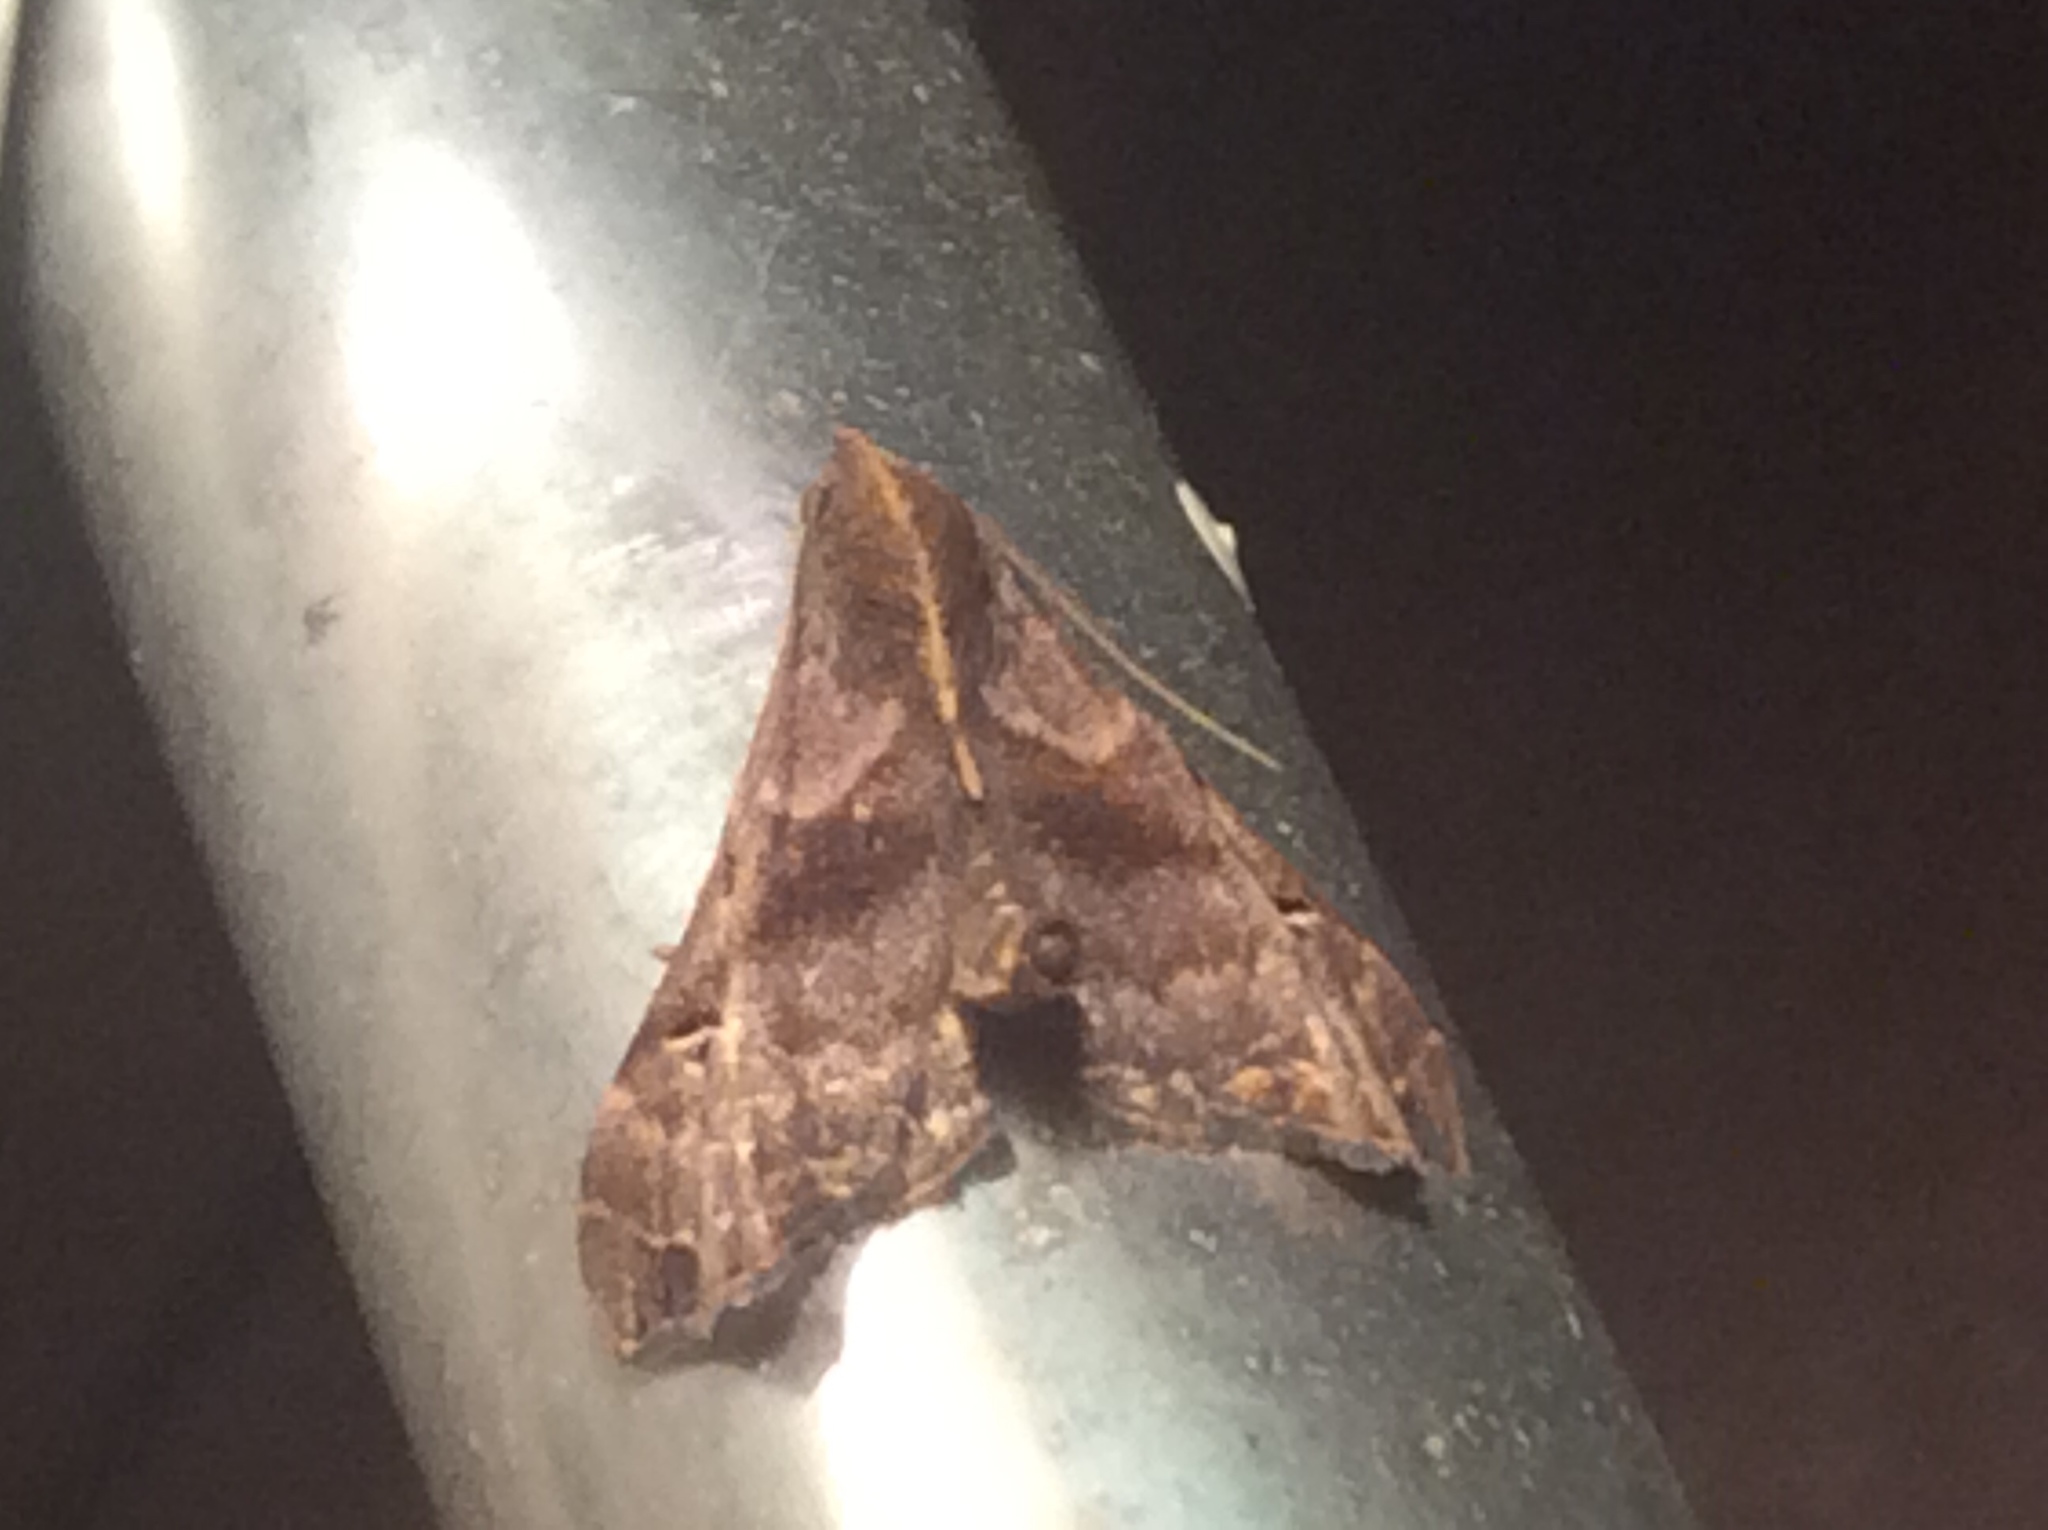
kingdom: Animalia
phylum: Arthropoda
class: Insecta
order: Lepidoptera
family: Erebidae
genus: Palthis
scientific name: Palthis asopialis
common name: Faint-spotted palthis moth
